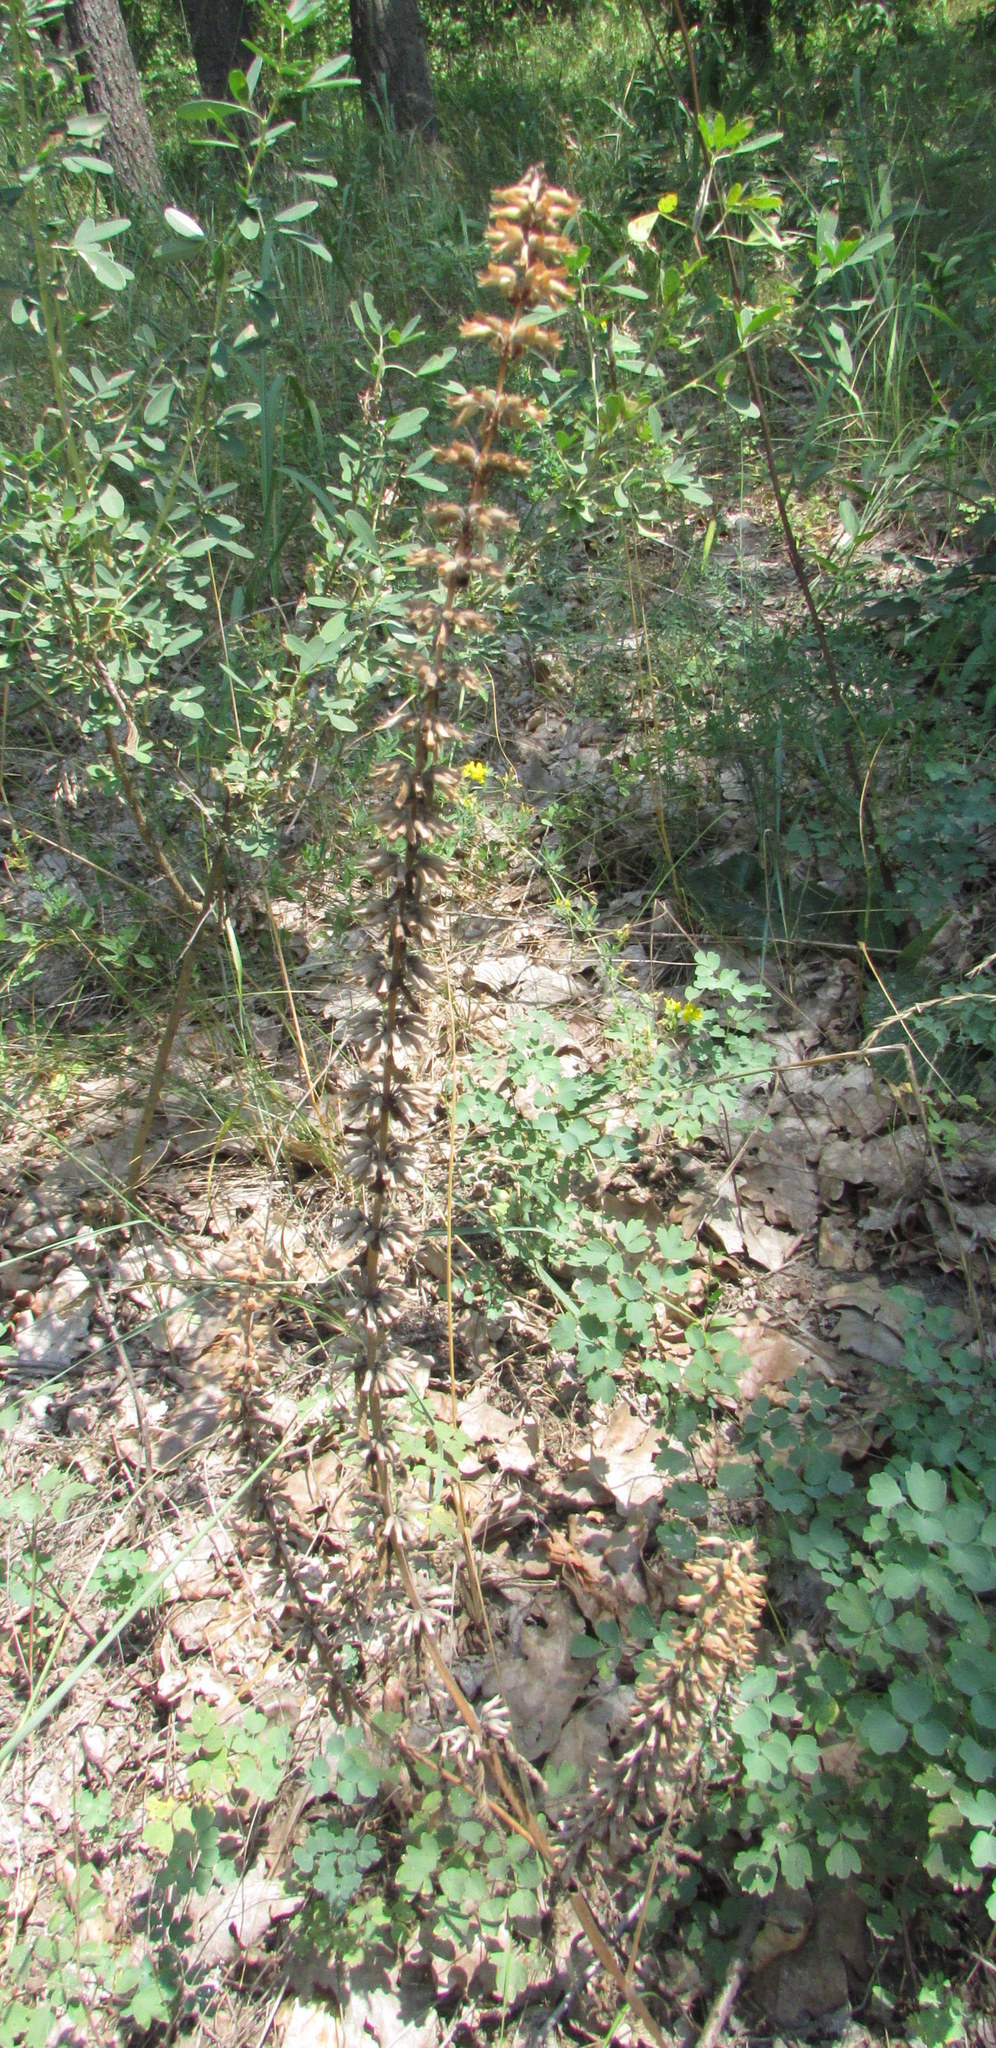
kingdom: Plantae
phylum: Tracheophyta
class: Magnoliopsida
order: Lamiales
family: Lamiaceae
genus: Dracocephalum
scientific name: Dracocephalum thymiflorum
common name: Thymeleaf dragonhead
